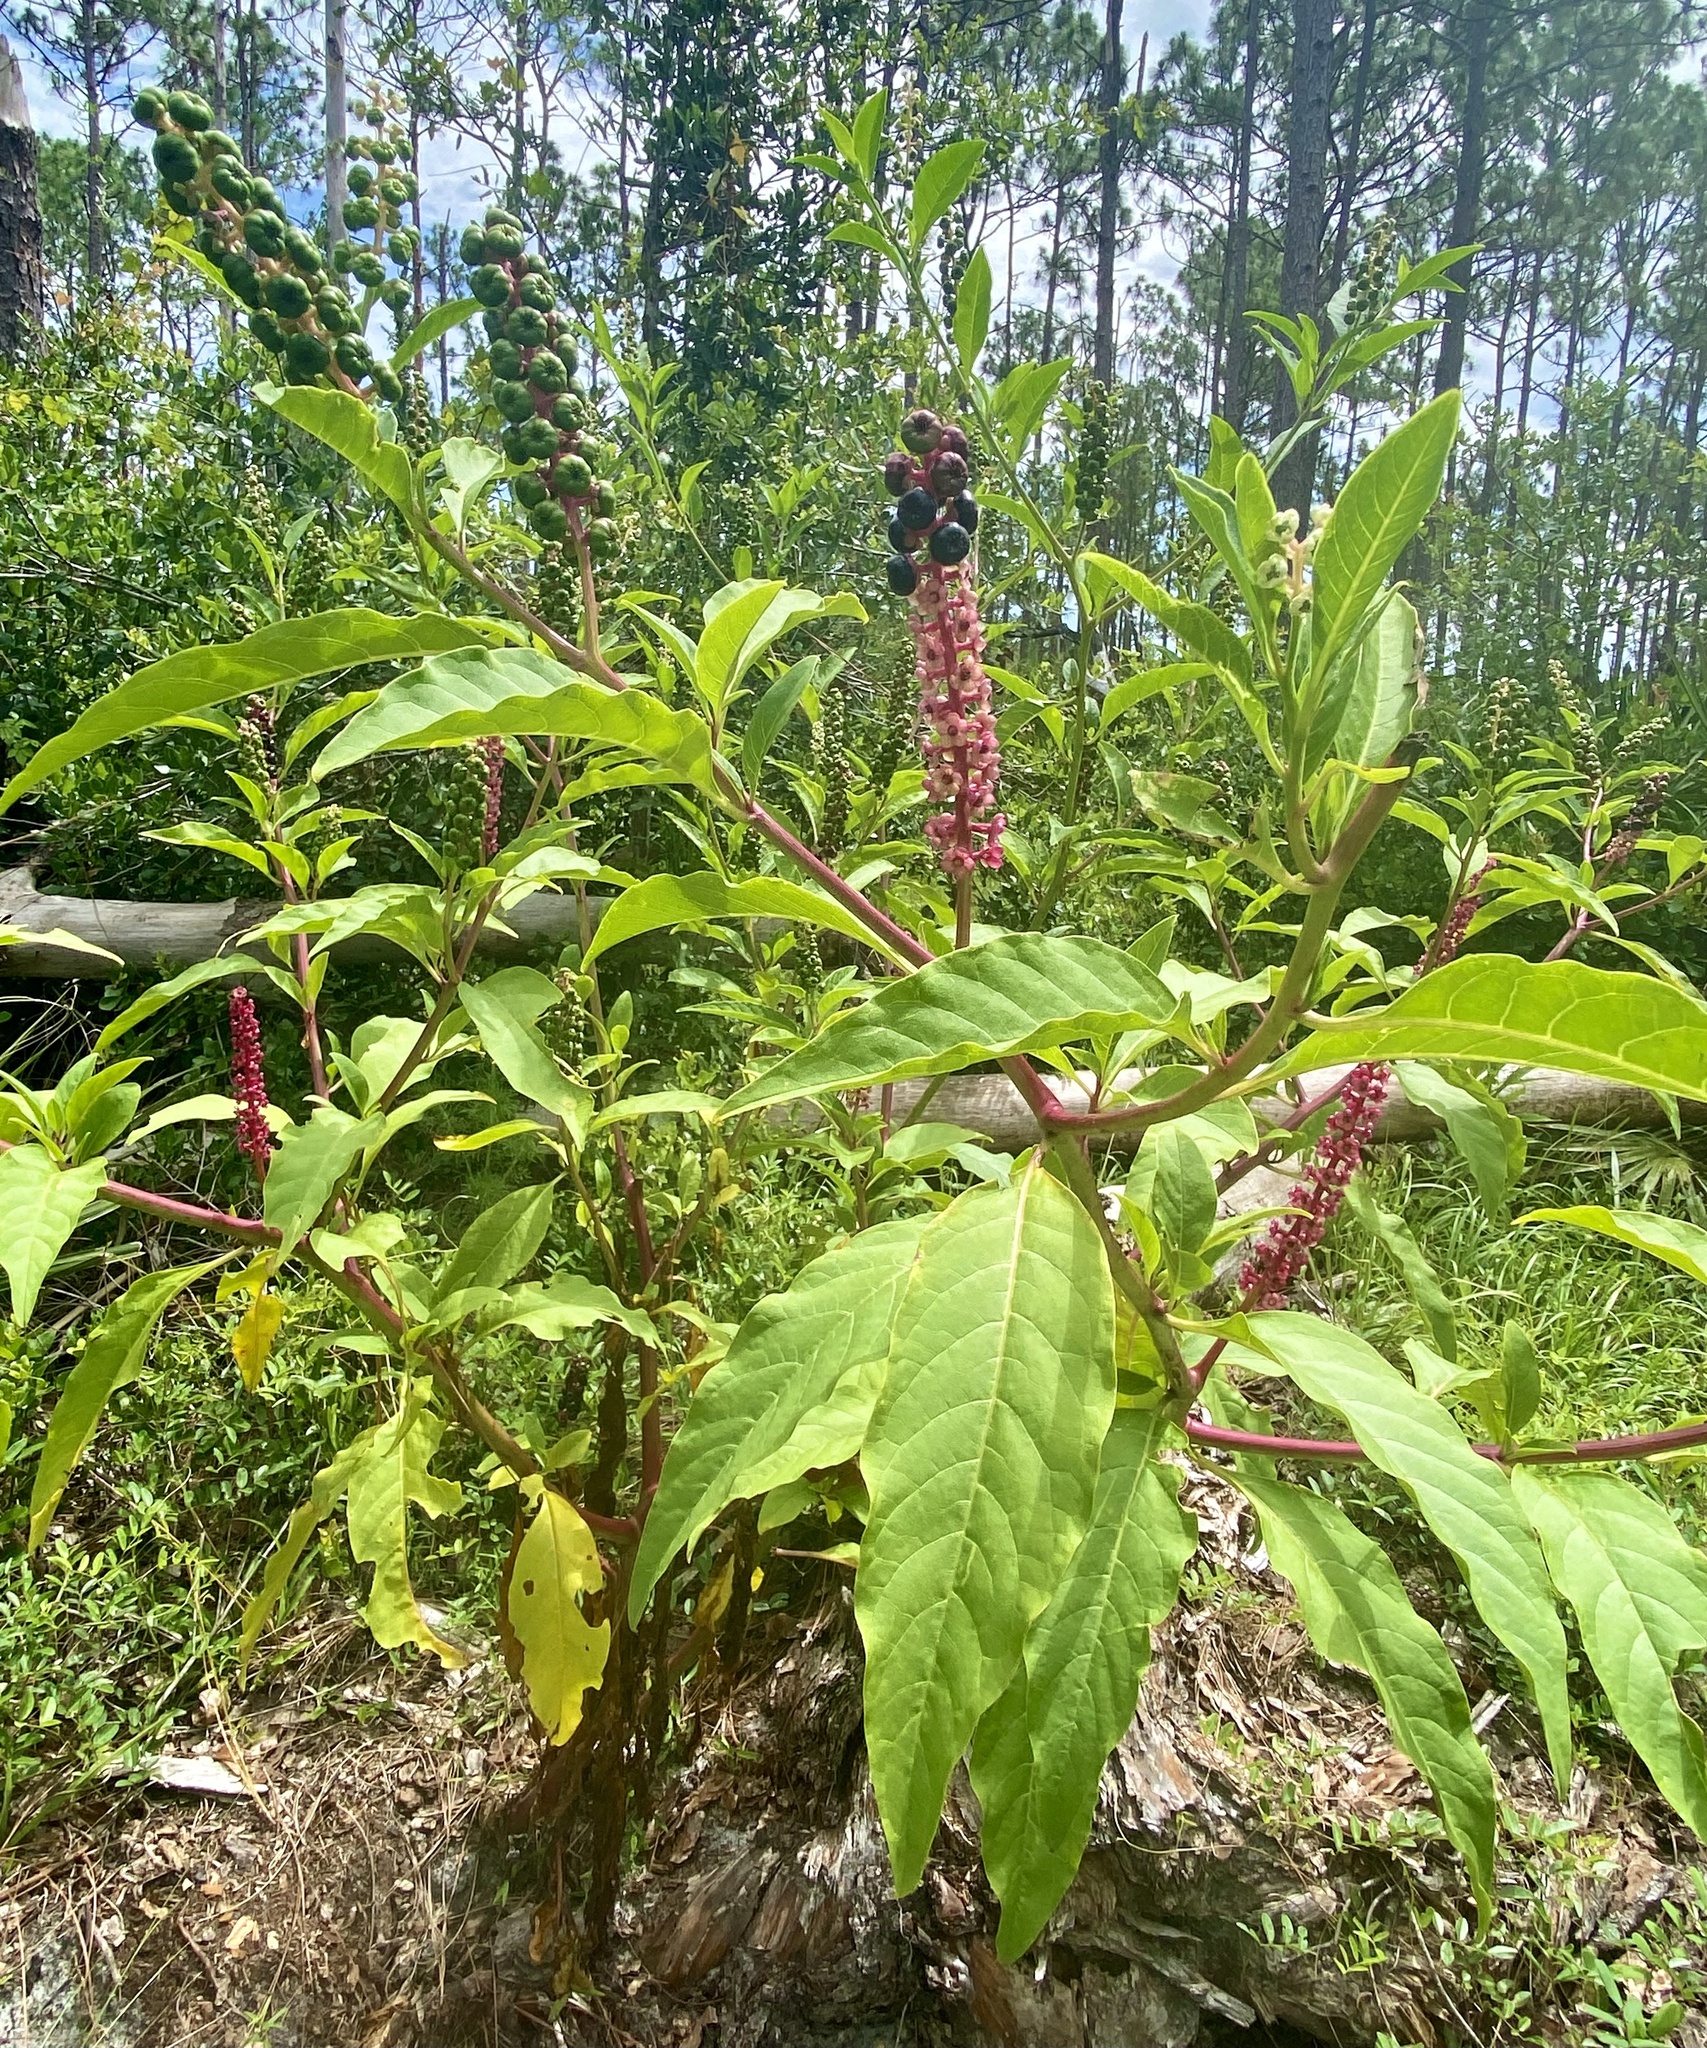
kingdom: Plantae
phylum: Tracheophyta
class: Magnoliopsida
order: Caryophyllales
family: Phytolaccaceae
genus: Phytolacca
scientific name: Phytolacca americana
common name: American pokeweed
